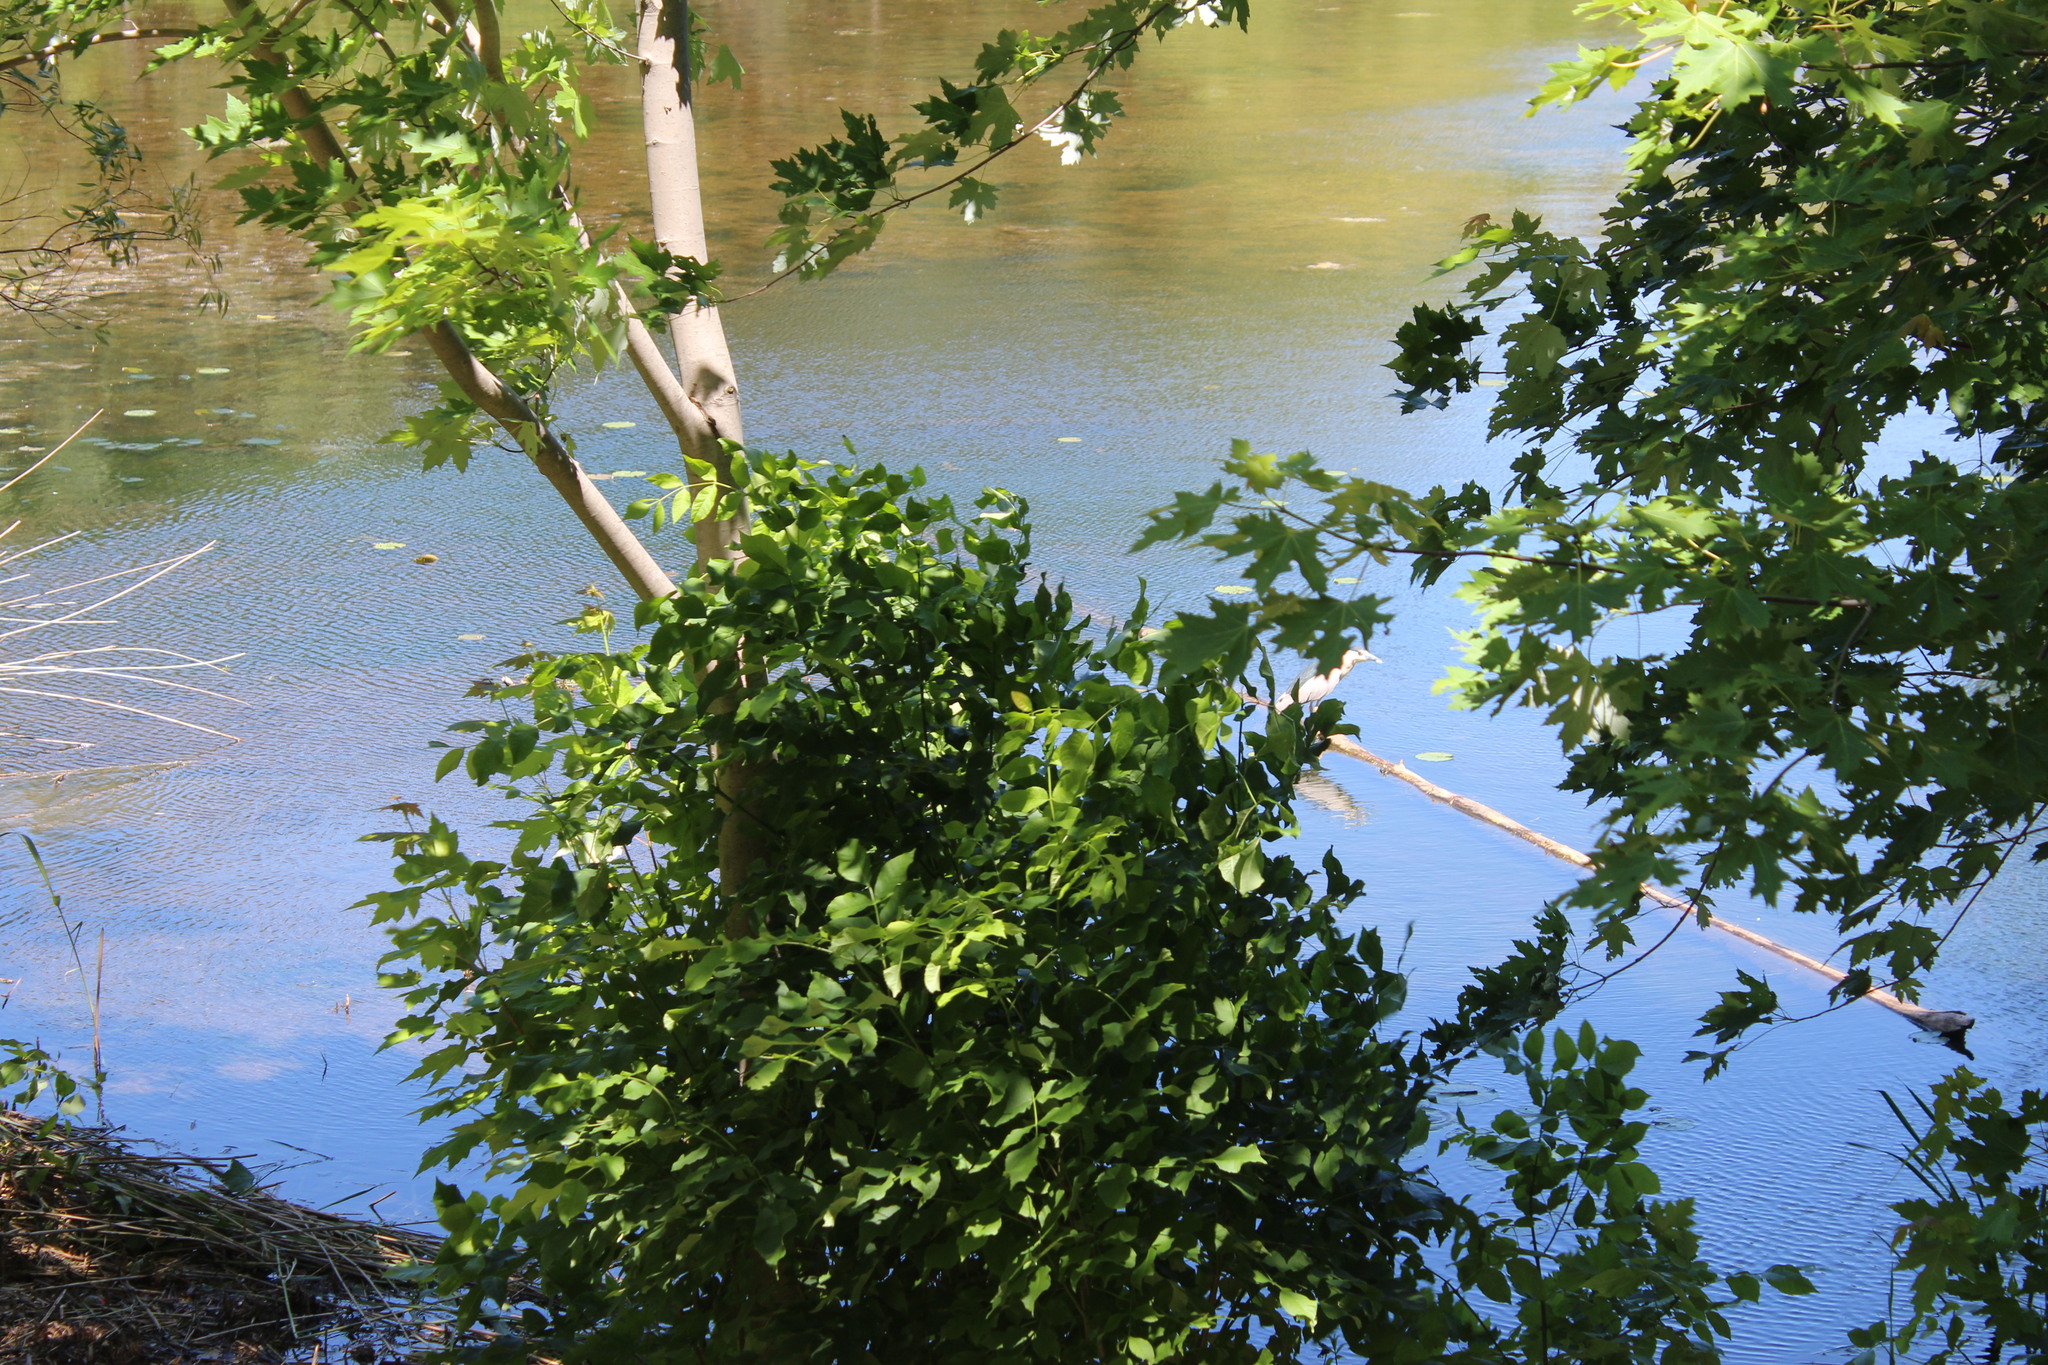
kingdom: Animalia
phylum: Chordata
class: Aves
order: Pelecaniformes
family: Ardeidae
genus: Nycticorax
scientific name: Nycticorax nycticorax
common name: Black-crowned night heron
